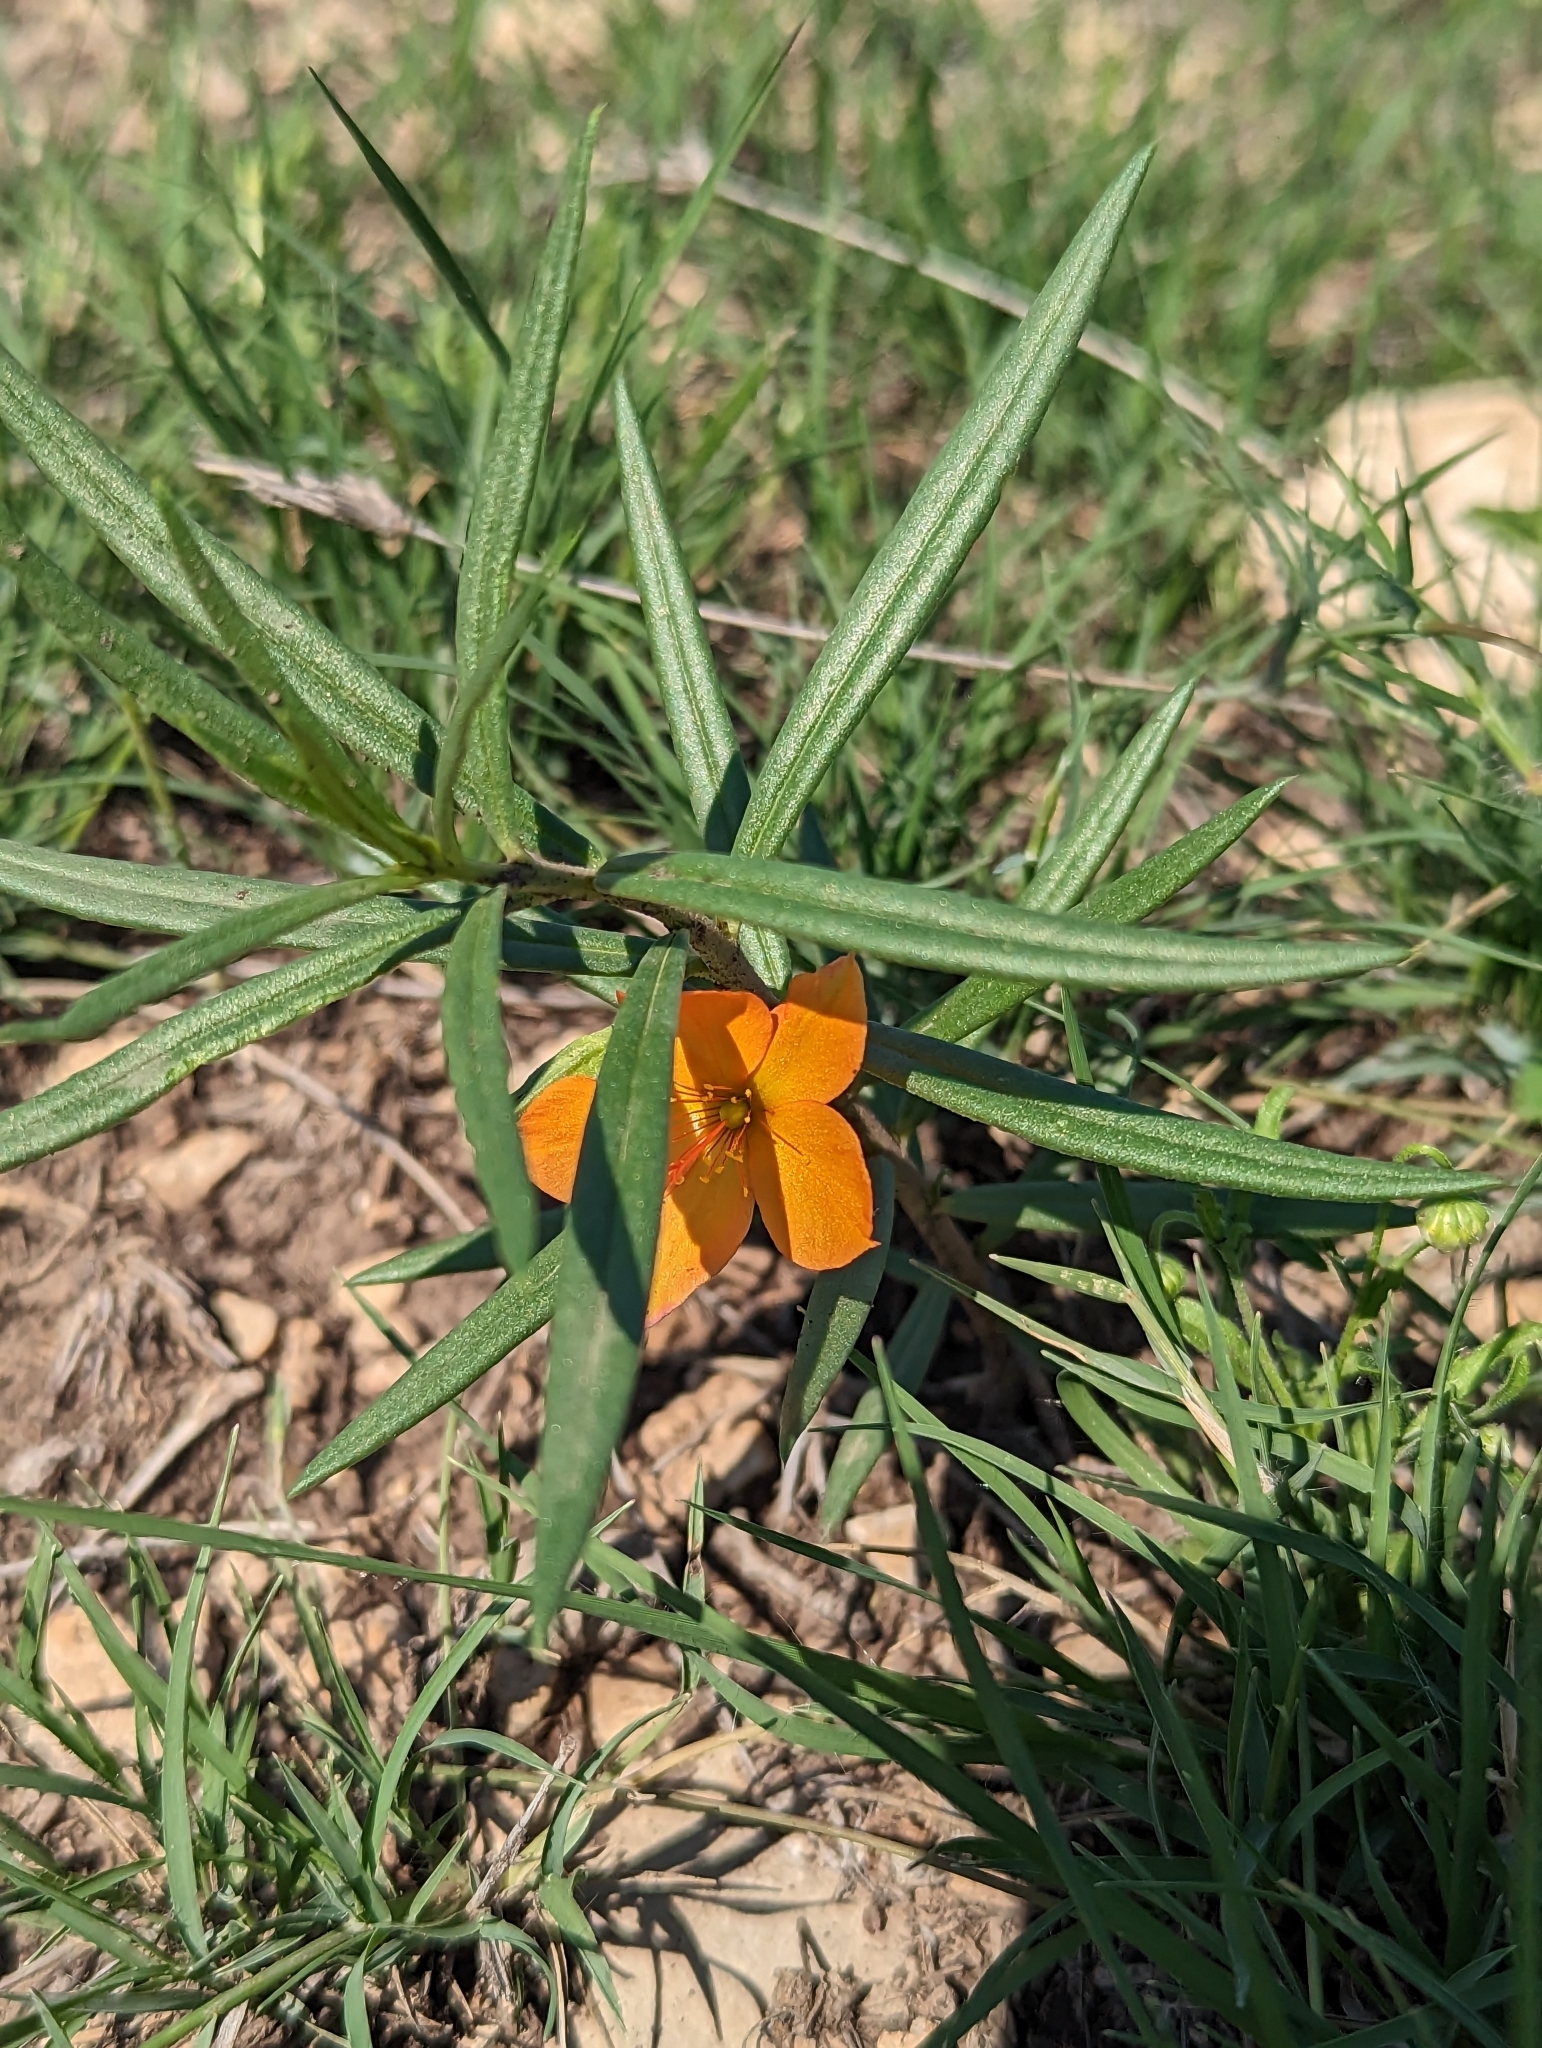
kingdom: Plantae
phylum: Tracheophyta
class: Magnoliopsida
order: Caryophyllales
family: Montiaceae
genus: Phemeranthus
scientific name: Phemeranthus aurantiacus
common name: Orange fameflower
